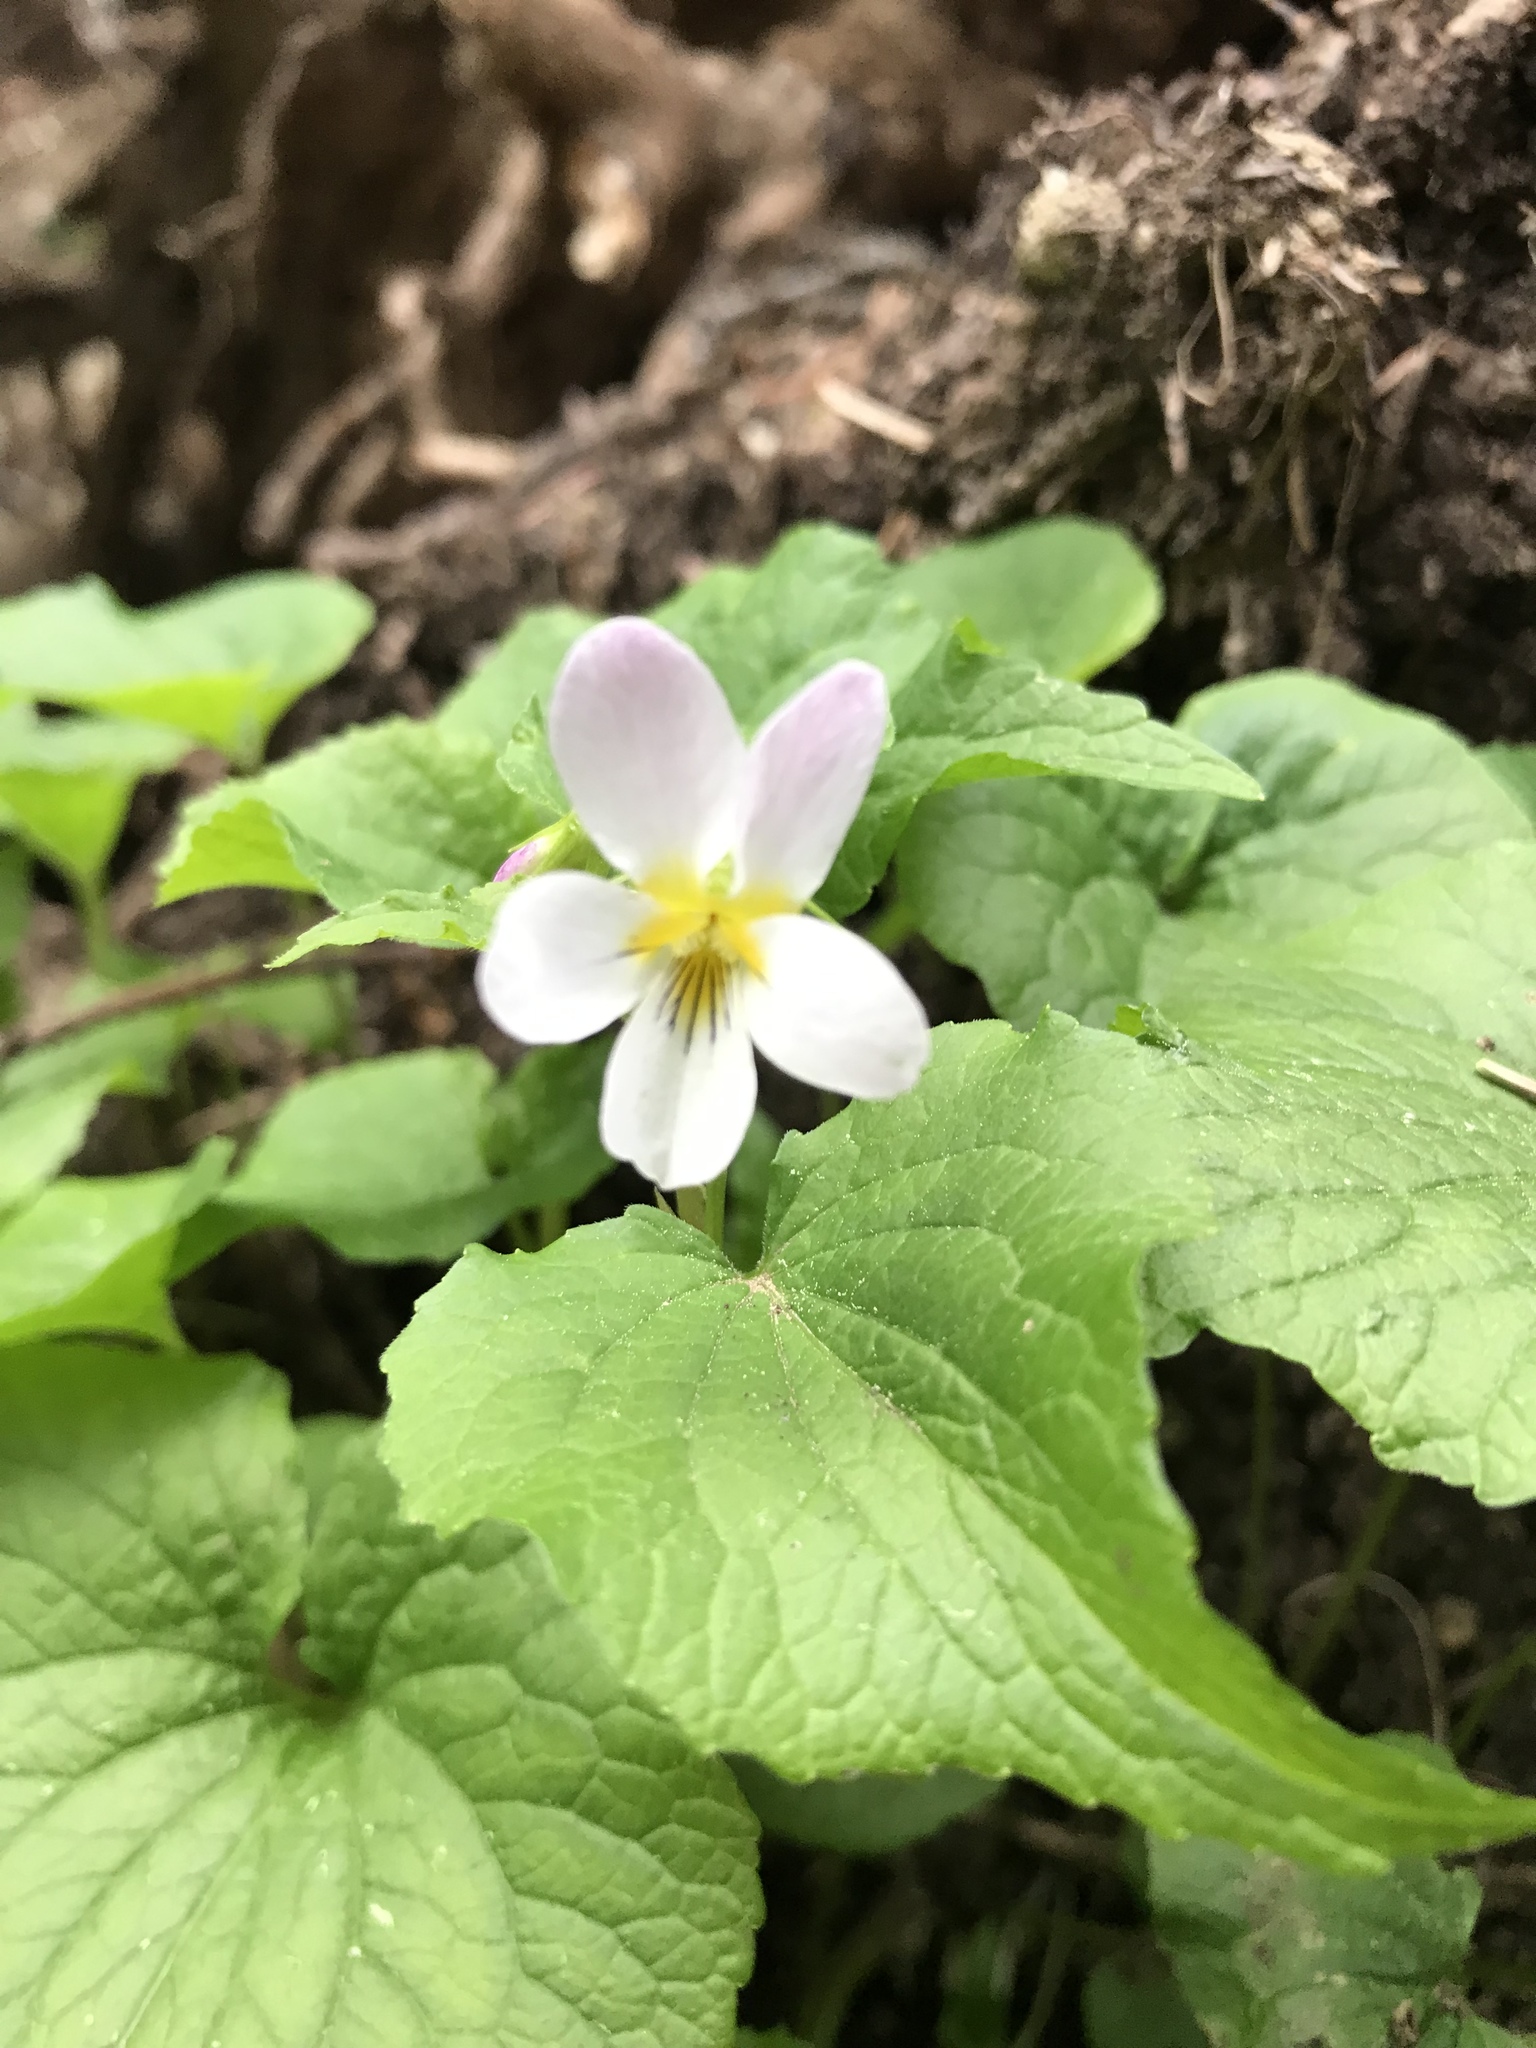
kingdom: Plantae
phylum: Tracheophyta
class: Magnoliopsida
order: Malpighiales
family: Violaceae
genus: Viola
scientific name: Viola canadensis
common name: Canada violet
